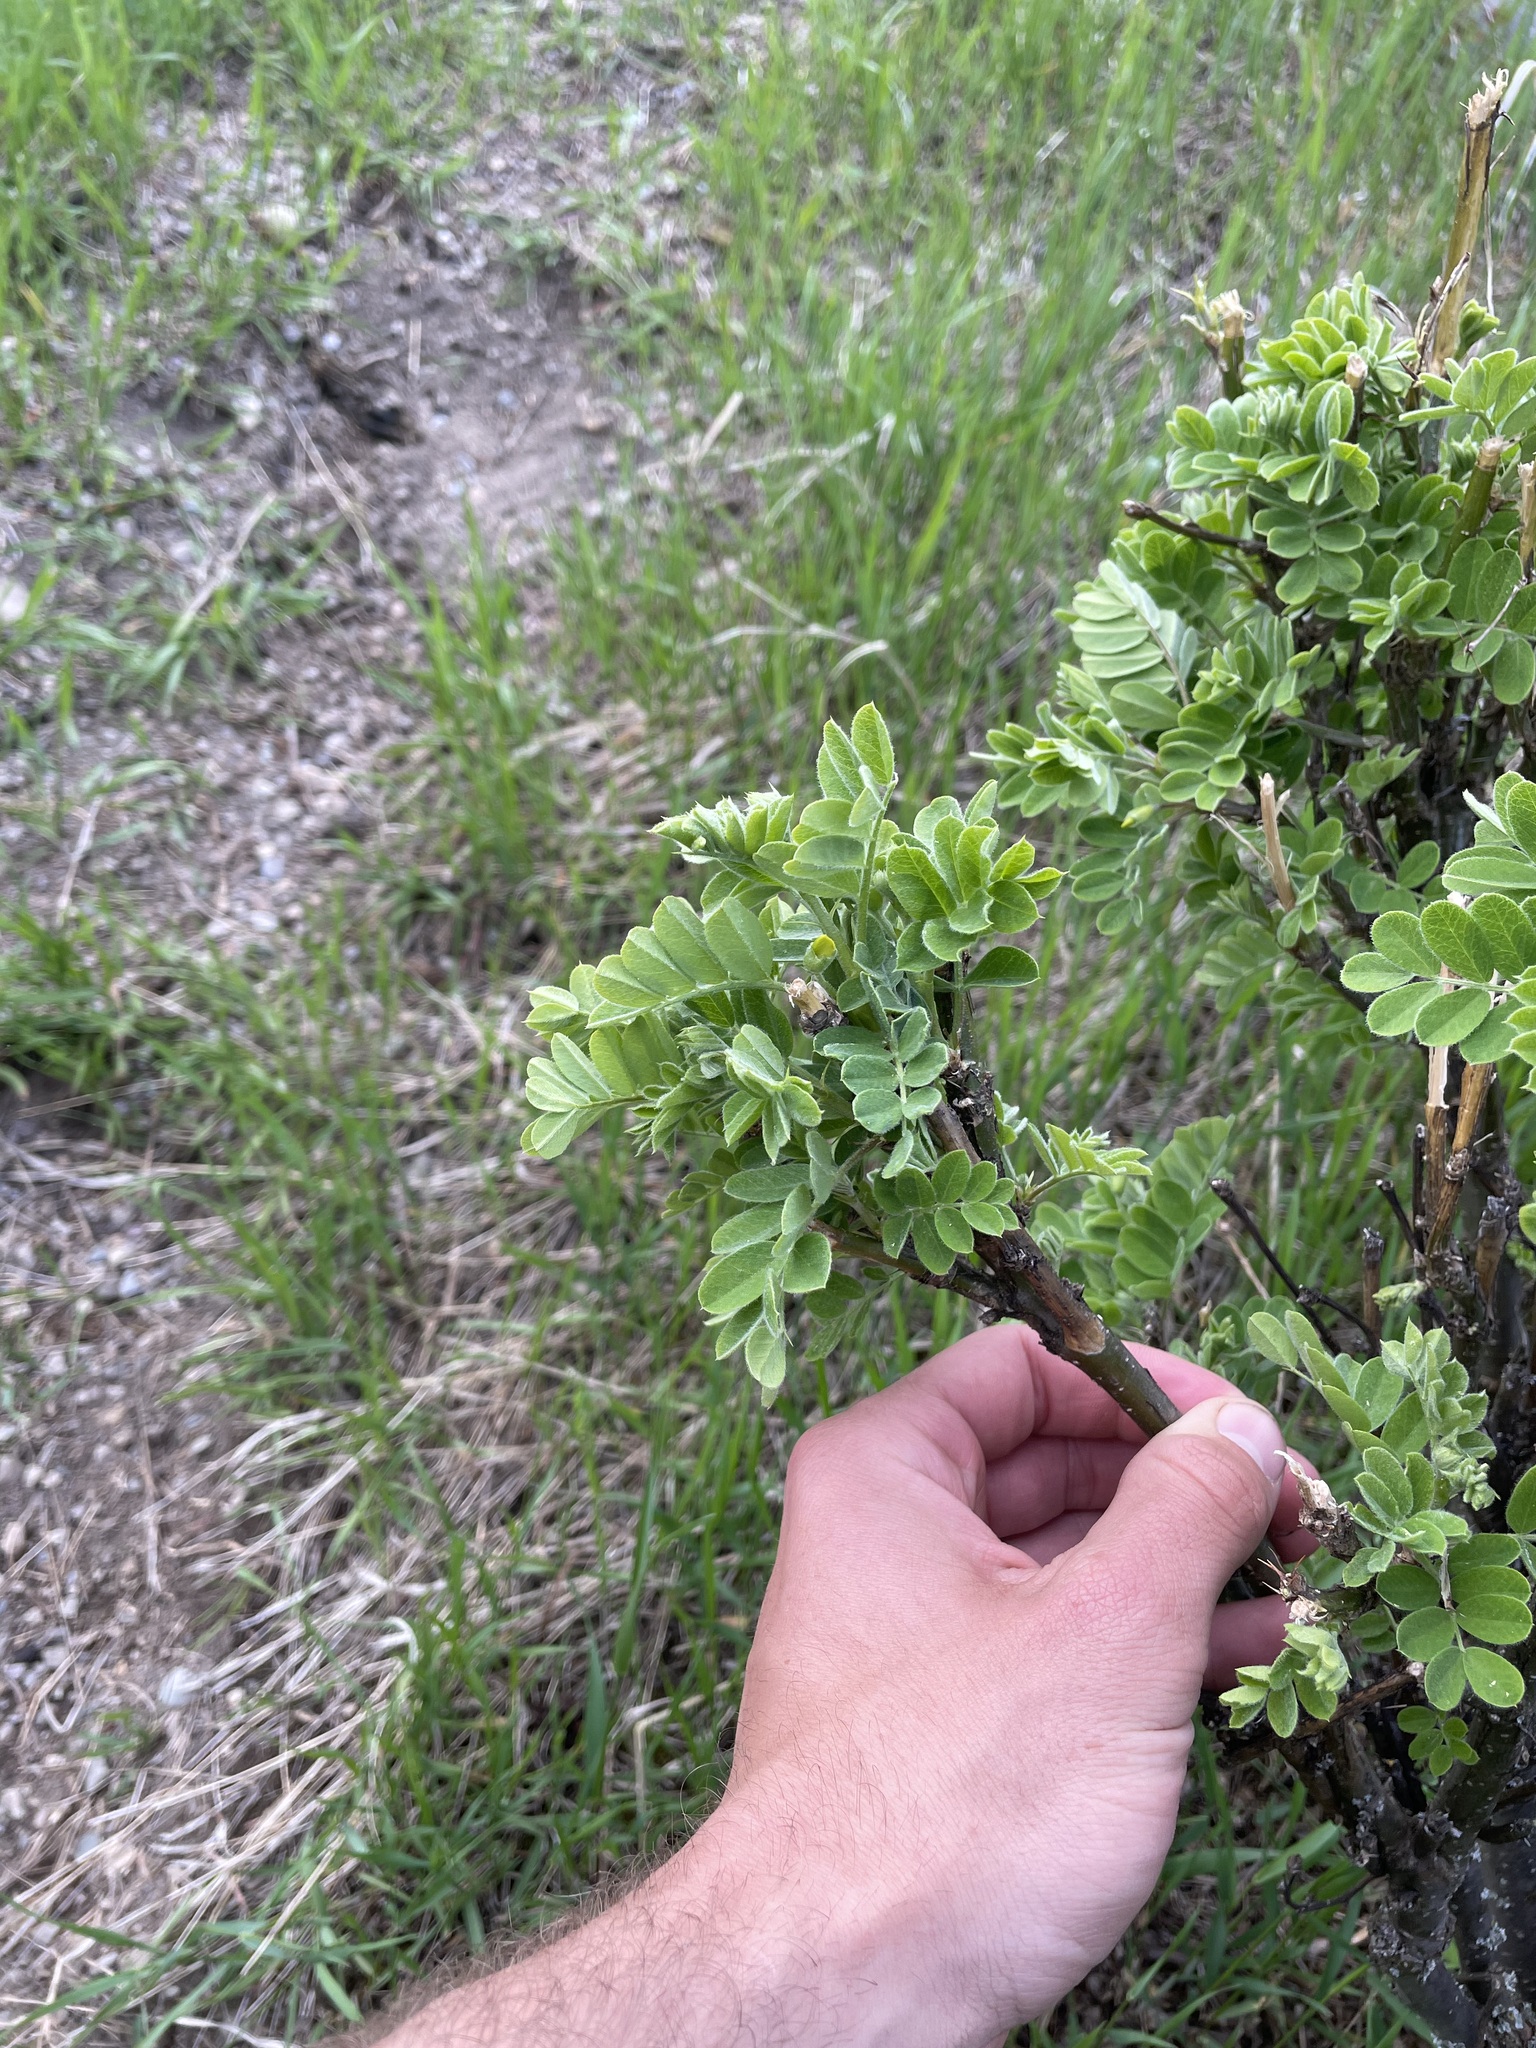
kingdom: Plantae
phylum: Tracheophyta
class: Magnoliopsida
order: Fabales
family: Fabaceae
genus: Caragana
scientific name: Caragana arborescens
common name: Siberian peashrub
